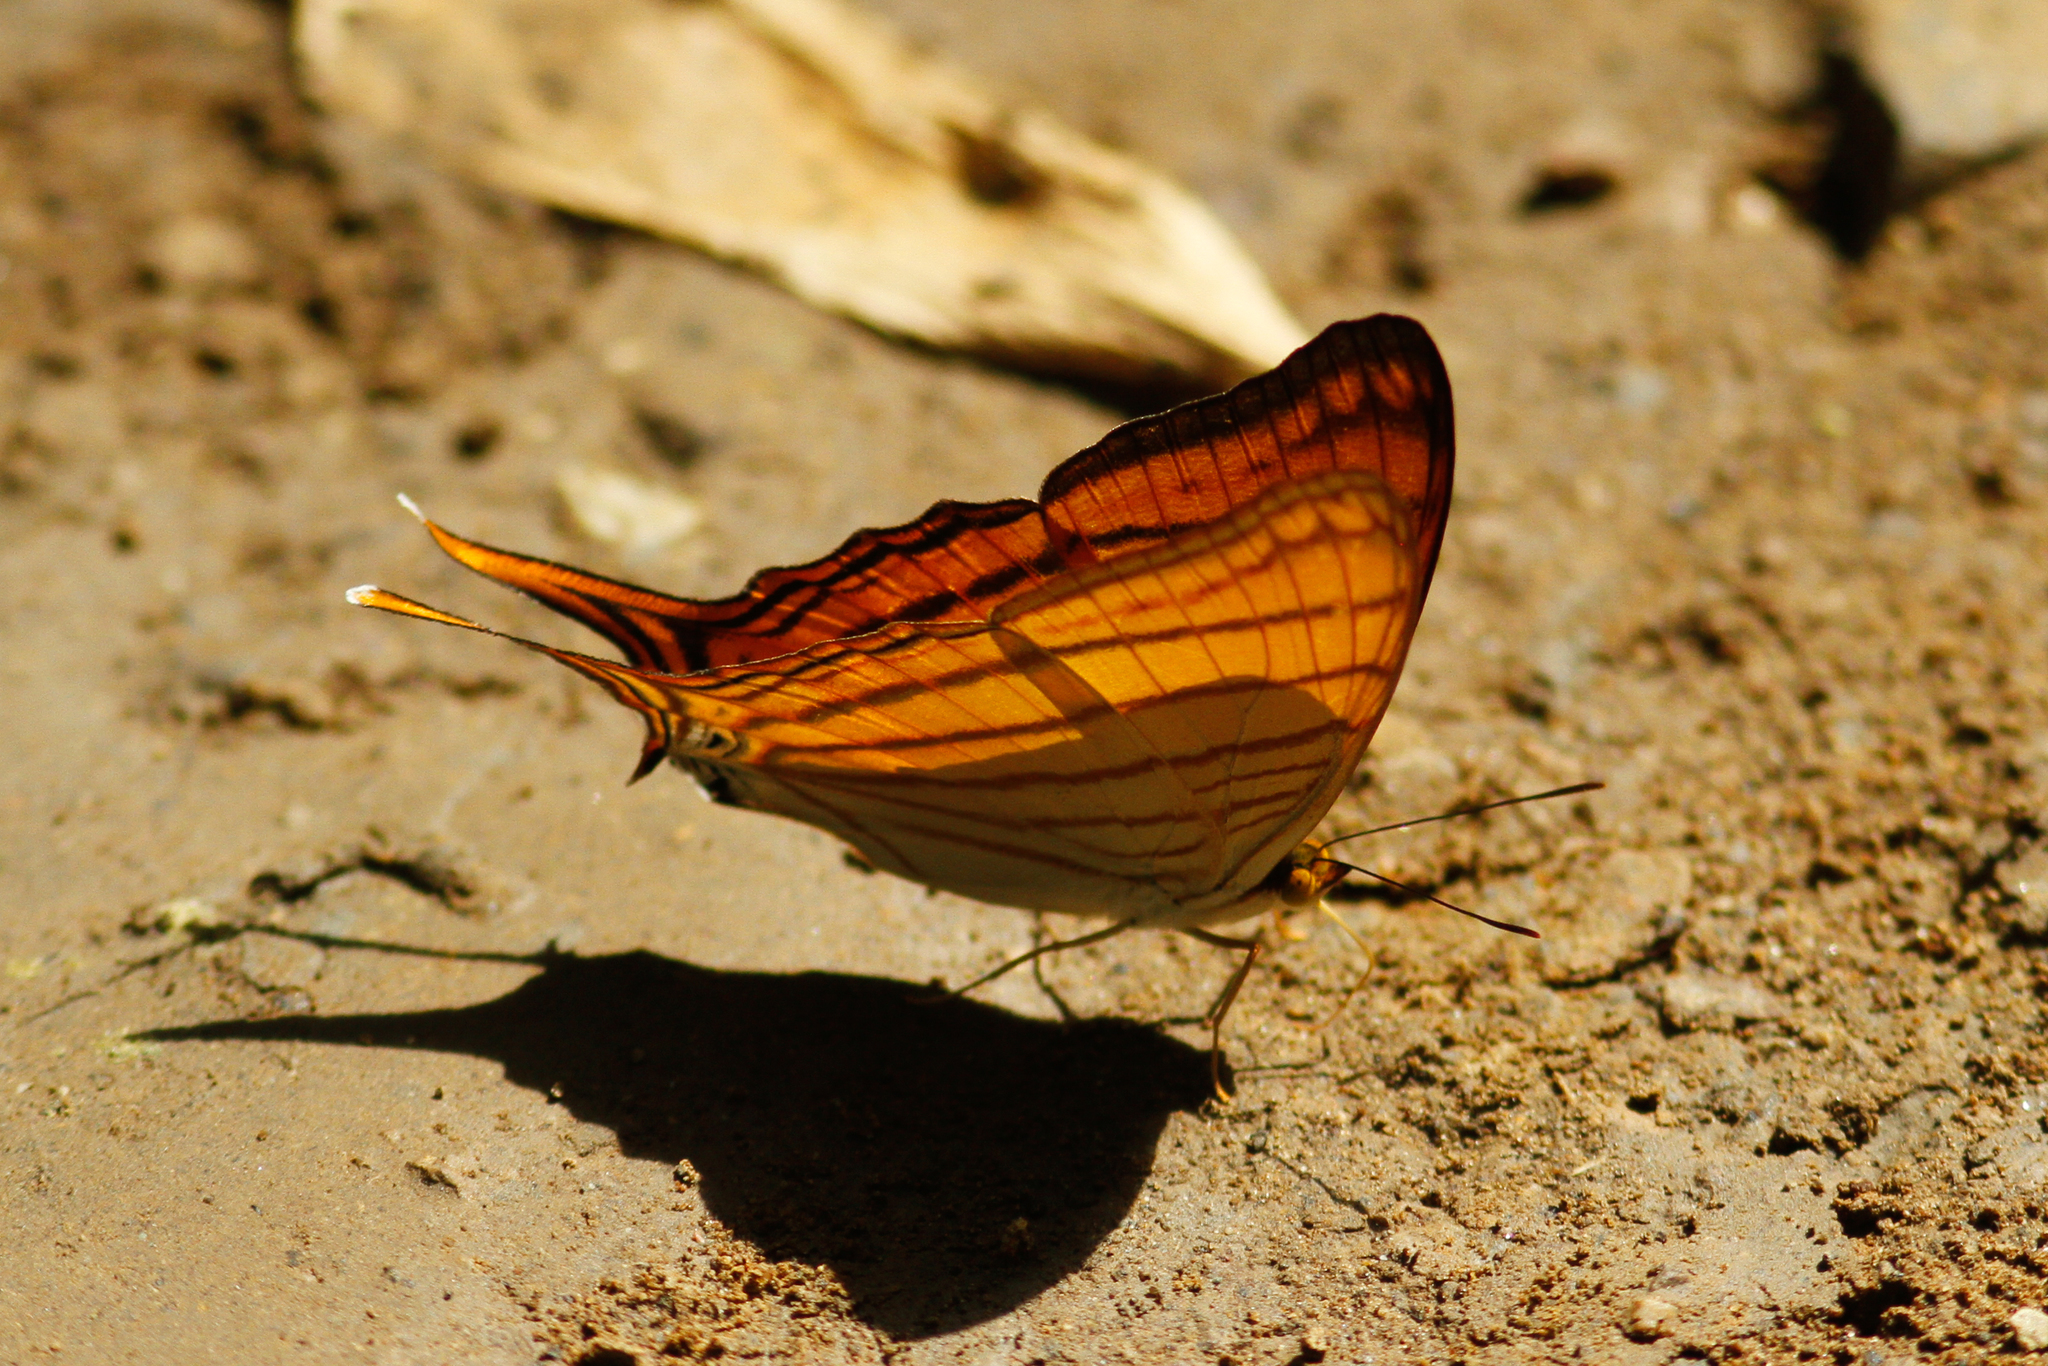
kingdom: Animalia
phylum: Arthropoda
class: Insecta
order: Lepidoptera
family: Nymphalidae
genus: Marpesia
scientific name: Marpesia berania
